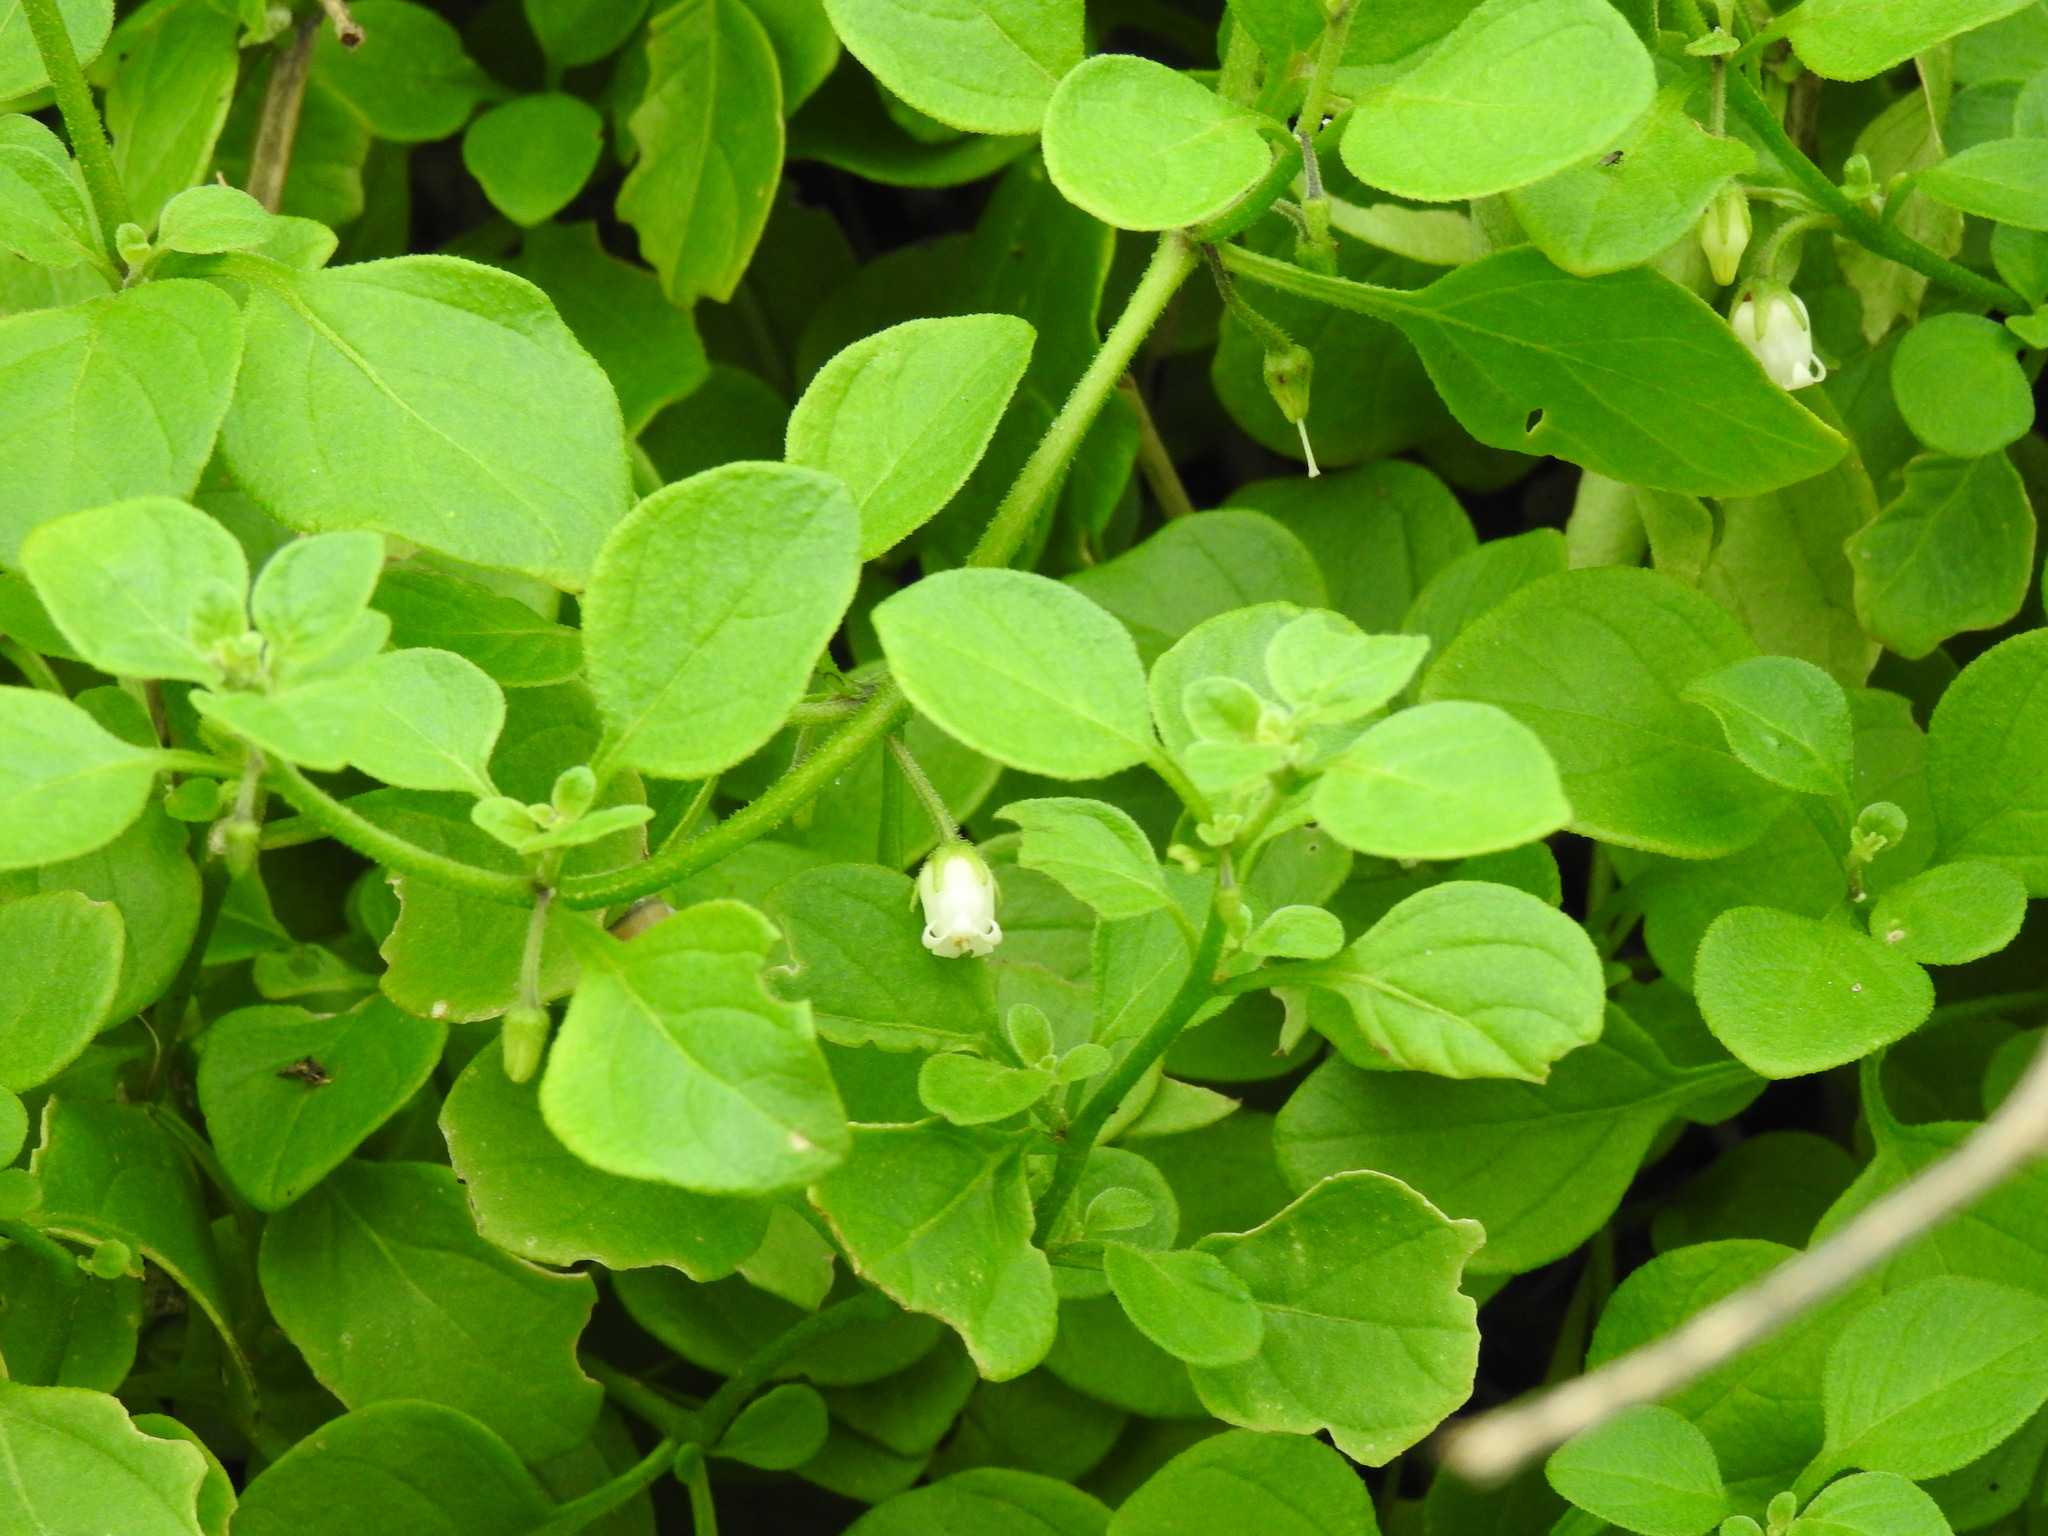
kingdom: Plantae
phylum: Tracheophyta
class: Magnoliopsida
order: Solanales
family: Solanaceae
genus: Salpichroa
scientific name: Salpichroa origanifolia
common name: Lily-of-the-valley-vine
